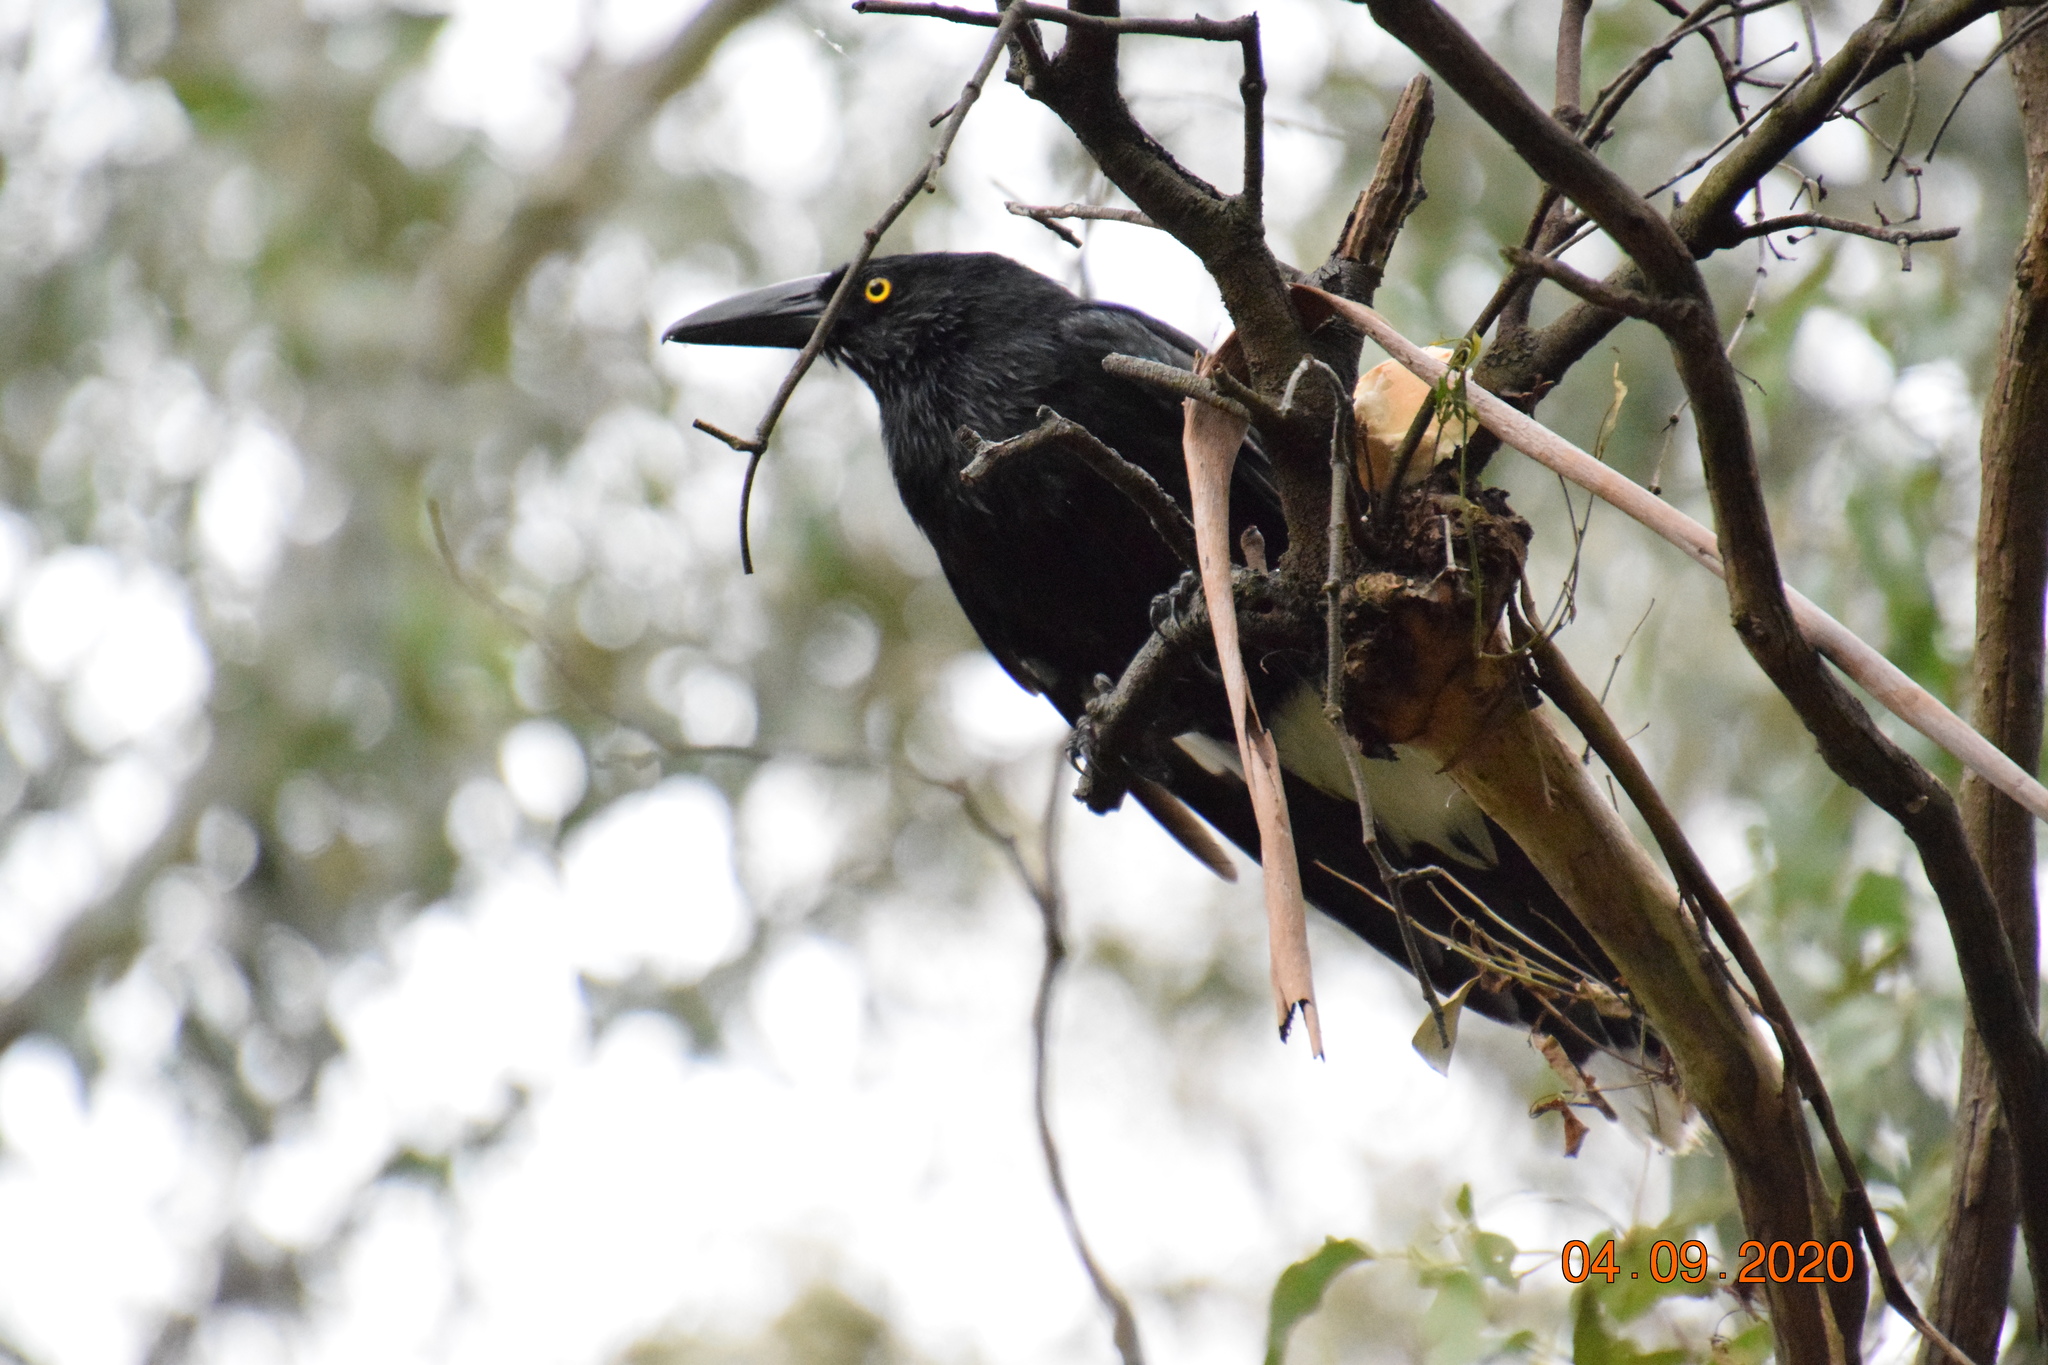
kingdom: Animalia
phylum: Chordata
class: Aves
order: Passeriformes
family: Cracticidae
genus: Strepera
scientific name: Strepera graculina
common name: Pied currawong
